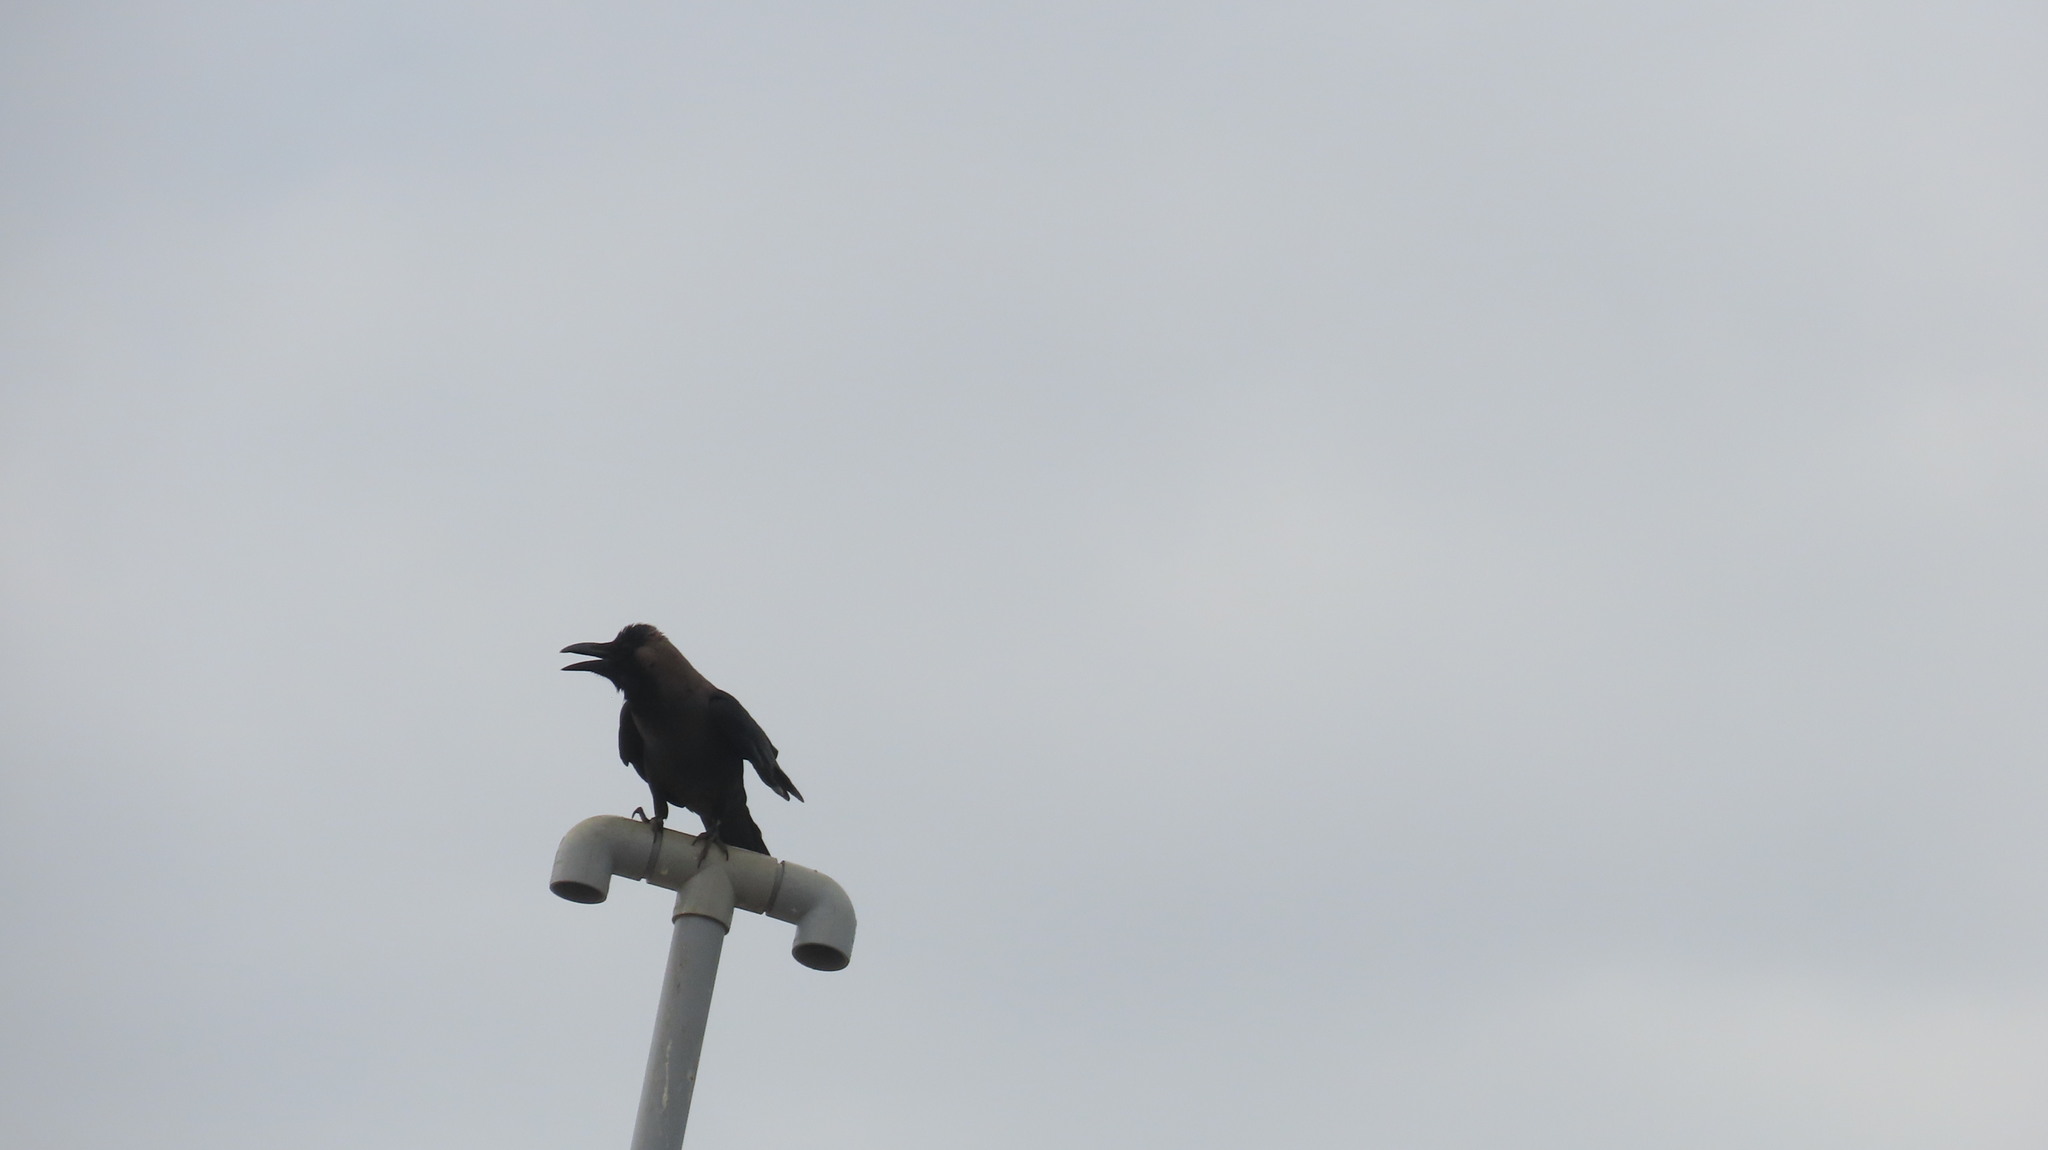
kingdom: Animalia
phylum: Chordata
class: Aves
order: Passeriformes
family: Corvidae
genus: Corvus
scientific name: Corvus splendens
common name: House crow
